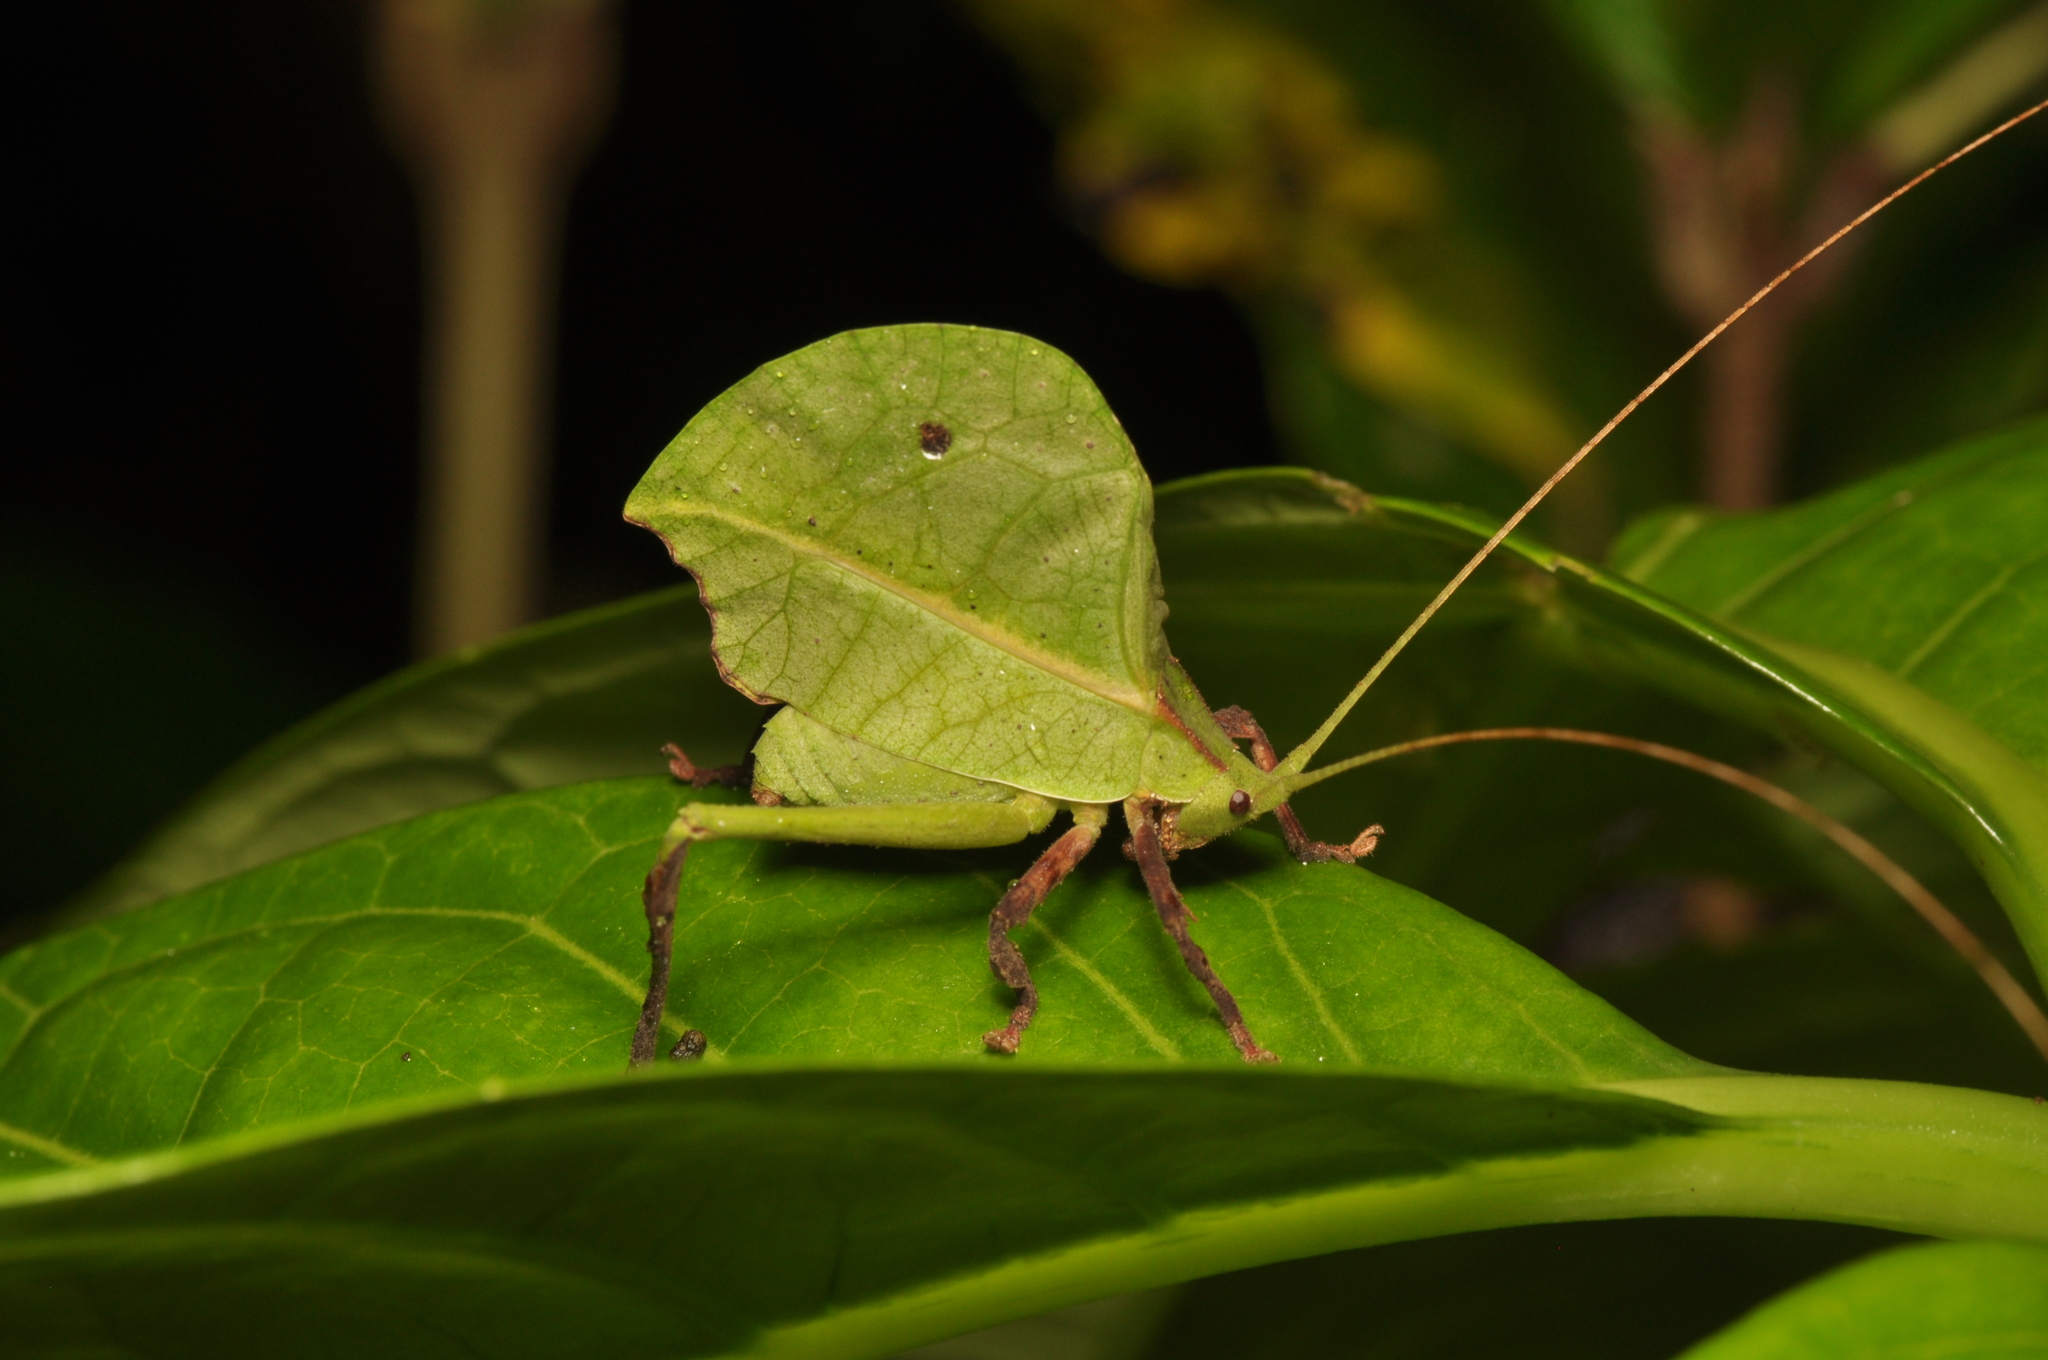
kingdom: Animalia
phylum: Arthropoda
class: Insecta
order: Orthoptera
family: Tettigoniidae
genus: Typophyllum
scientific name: Typophyllum mortuifolium
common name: Common little walking leaf
